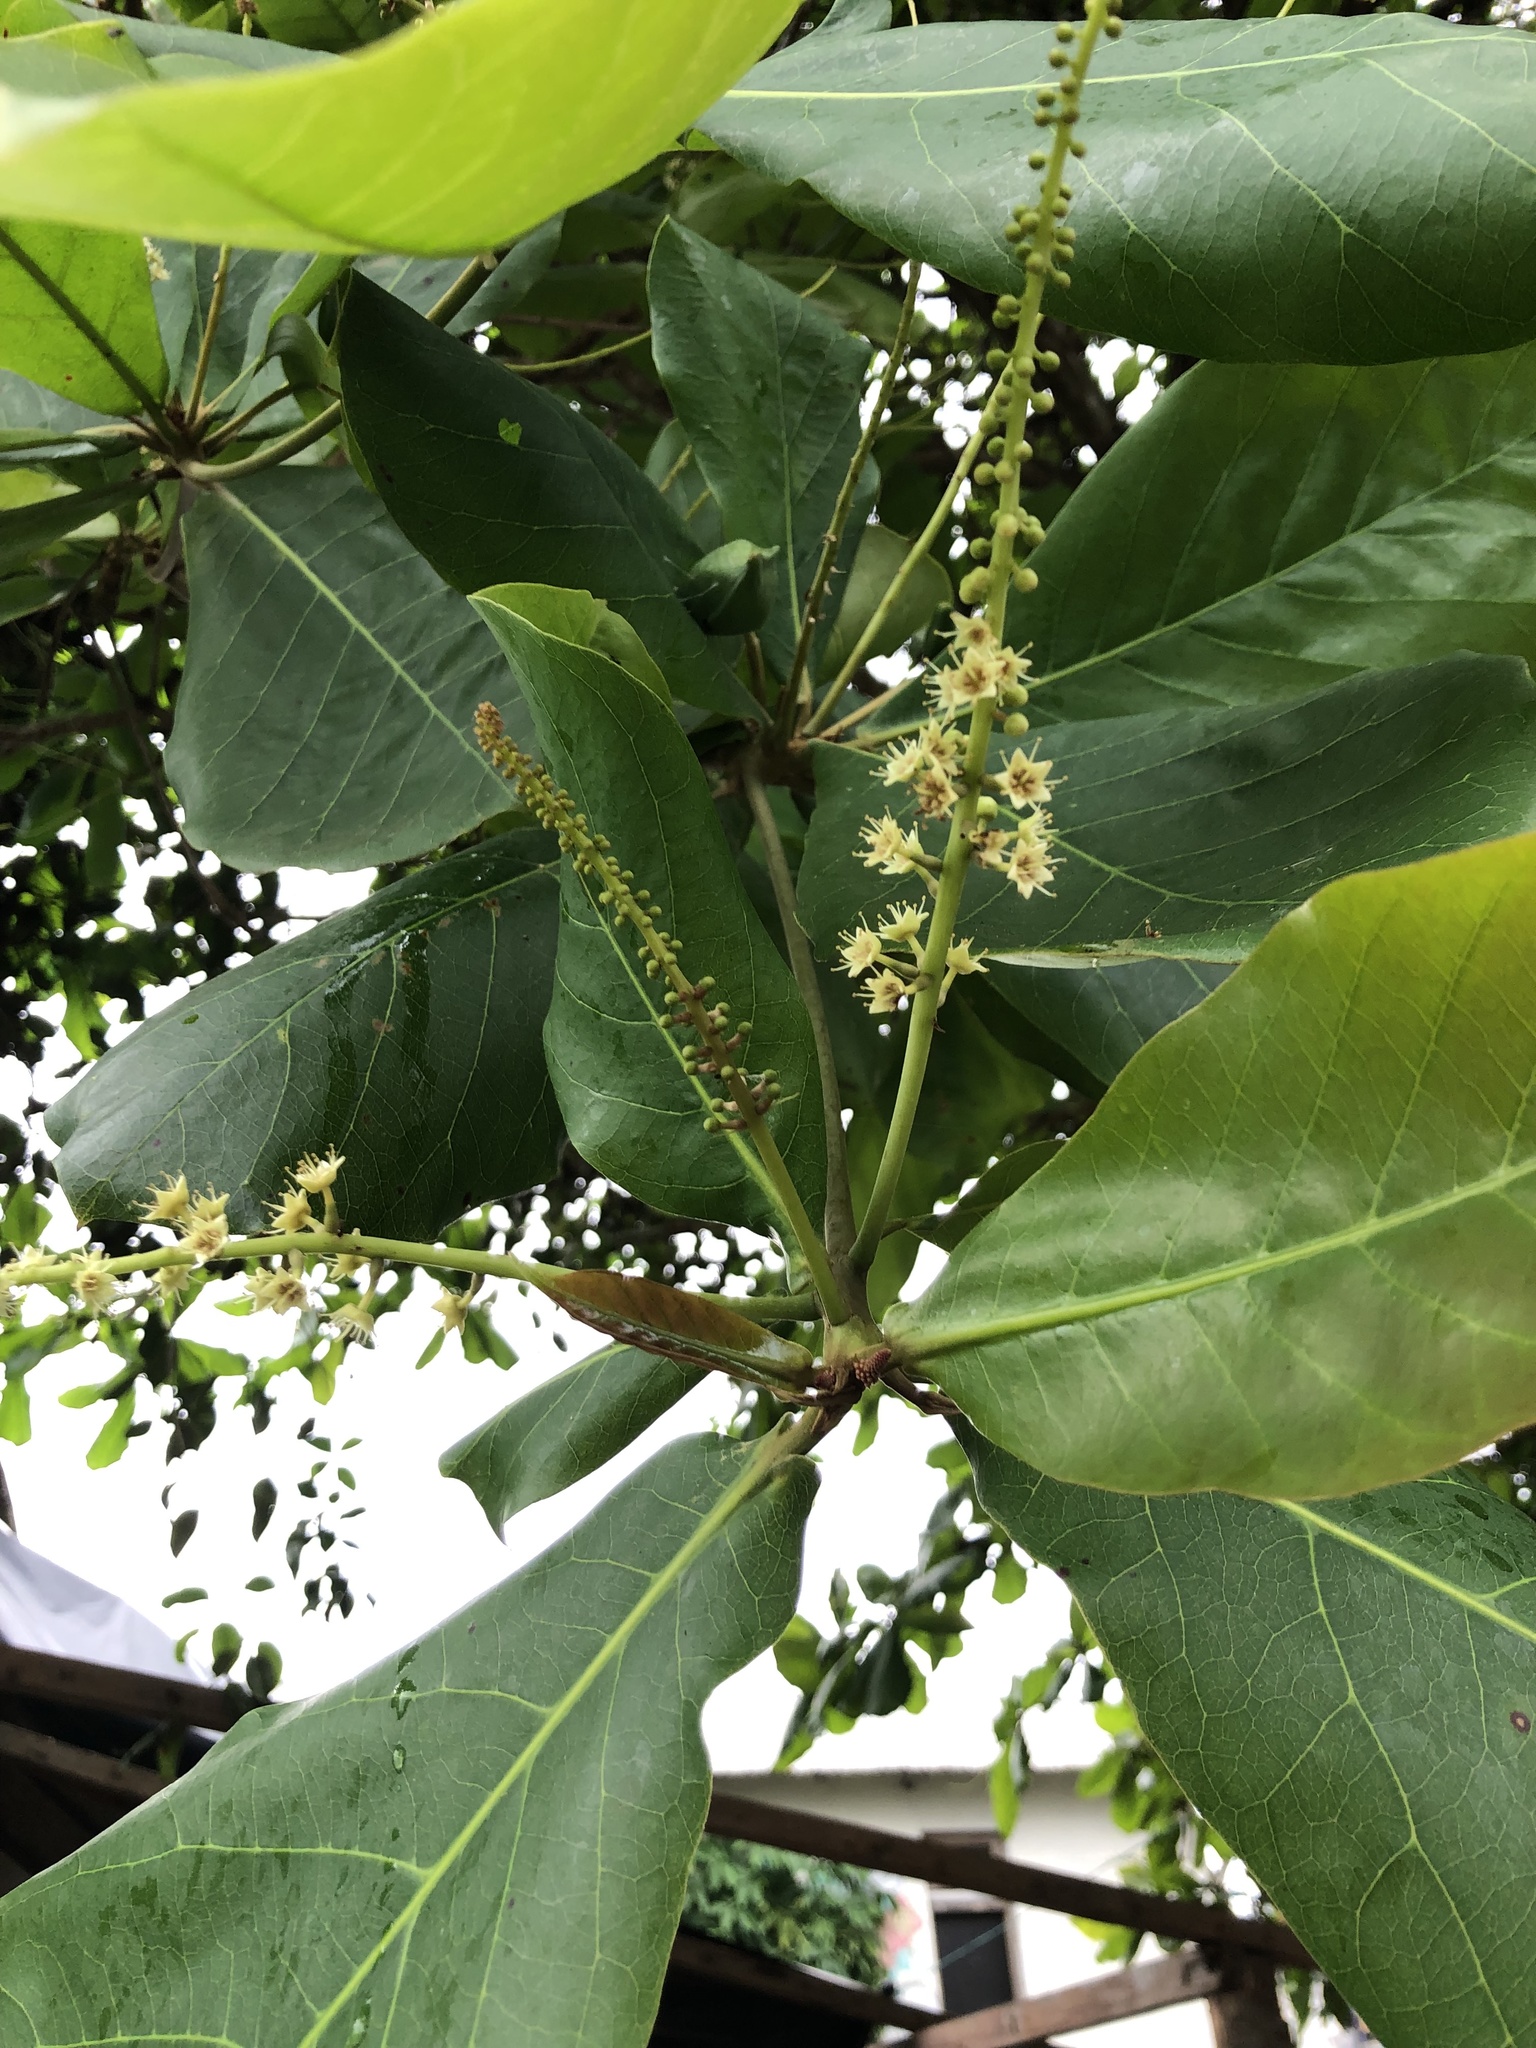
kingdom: Plantae
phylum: Tracheophyta
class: Magnoliopsida
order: Myrtales
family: Combretaceae
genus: Terminalia
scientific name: Terminalia catappa
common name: Tropical almond
